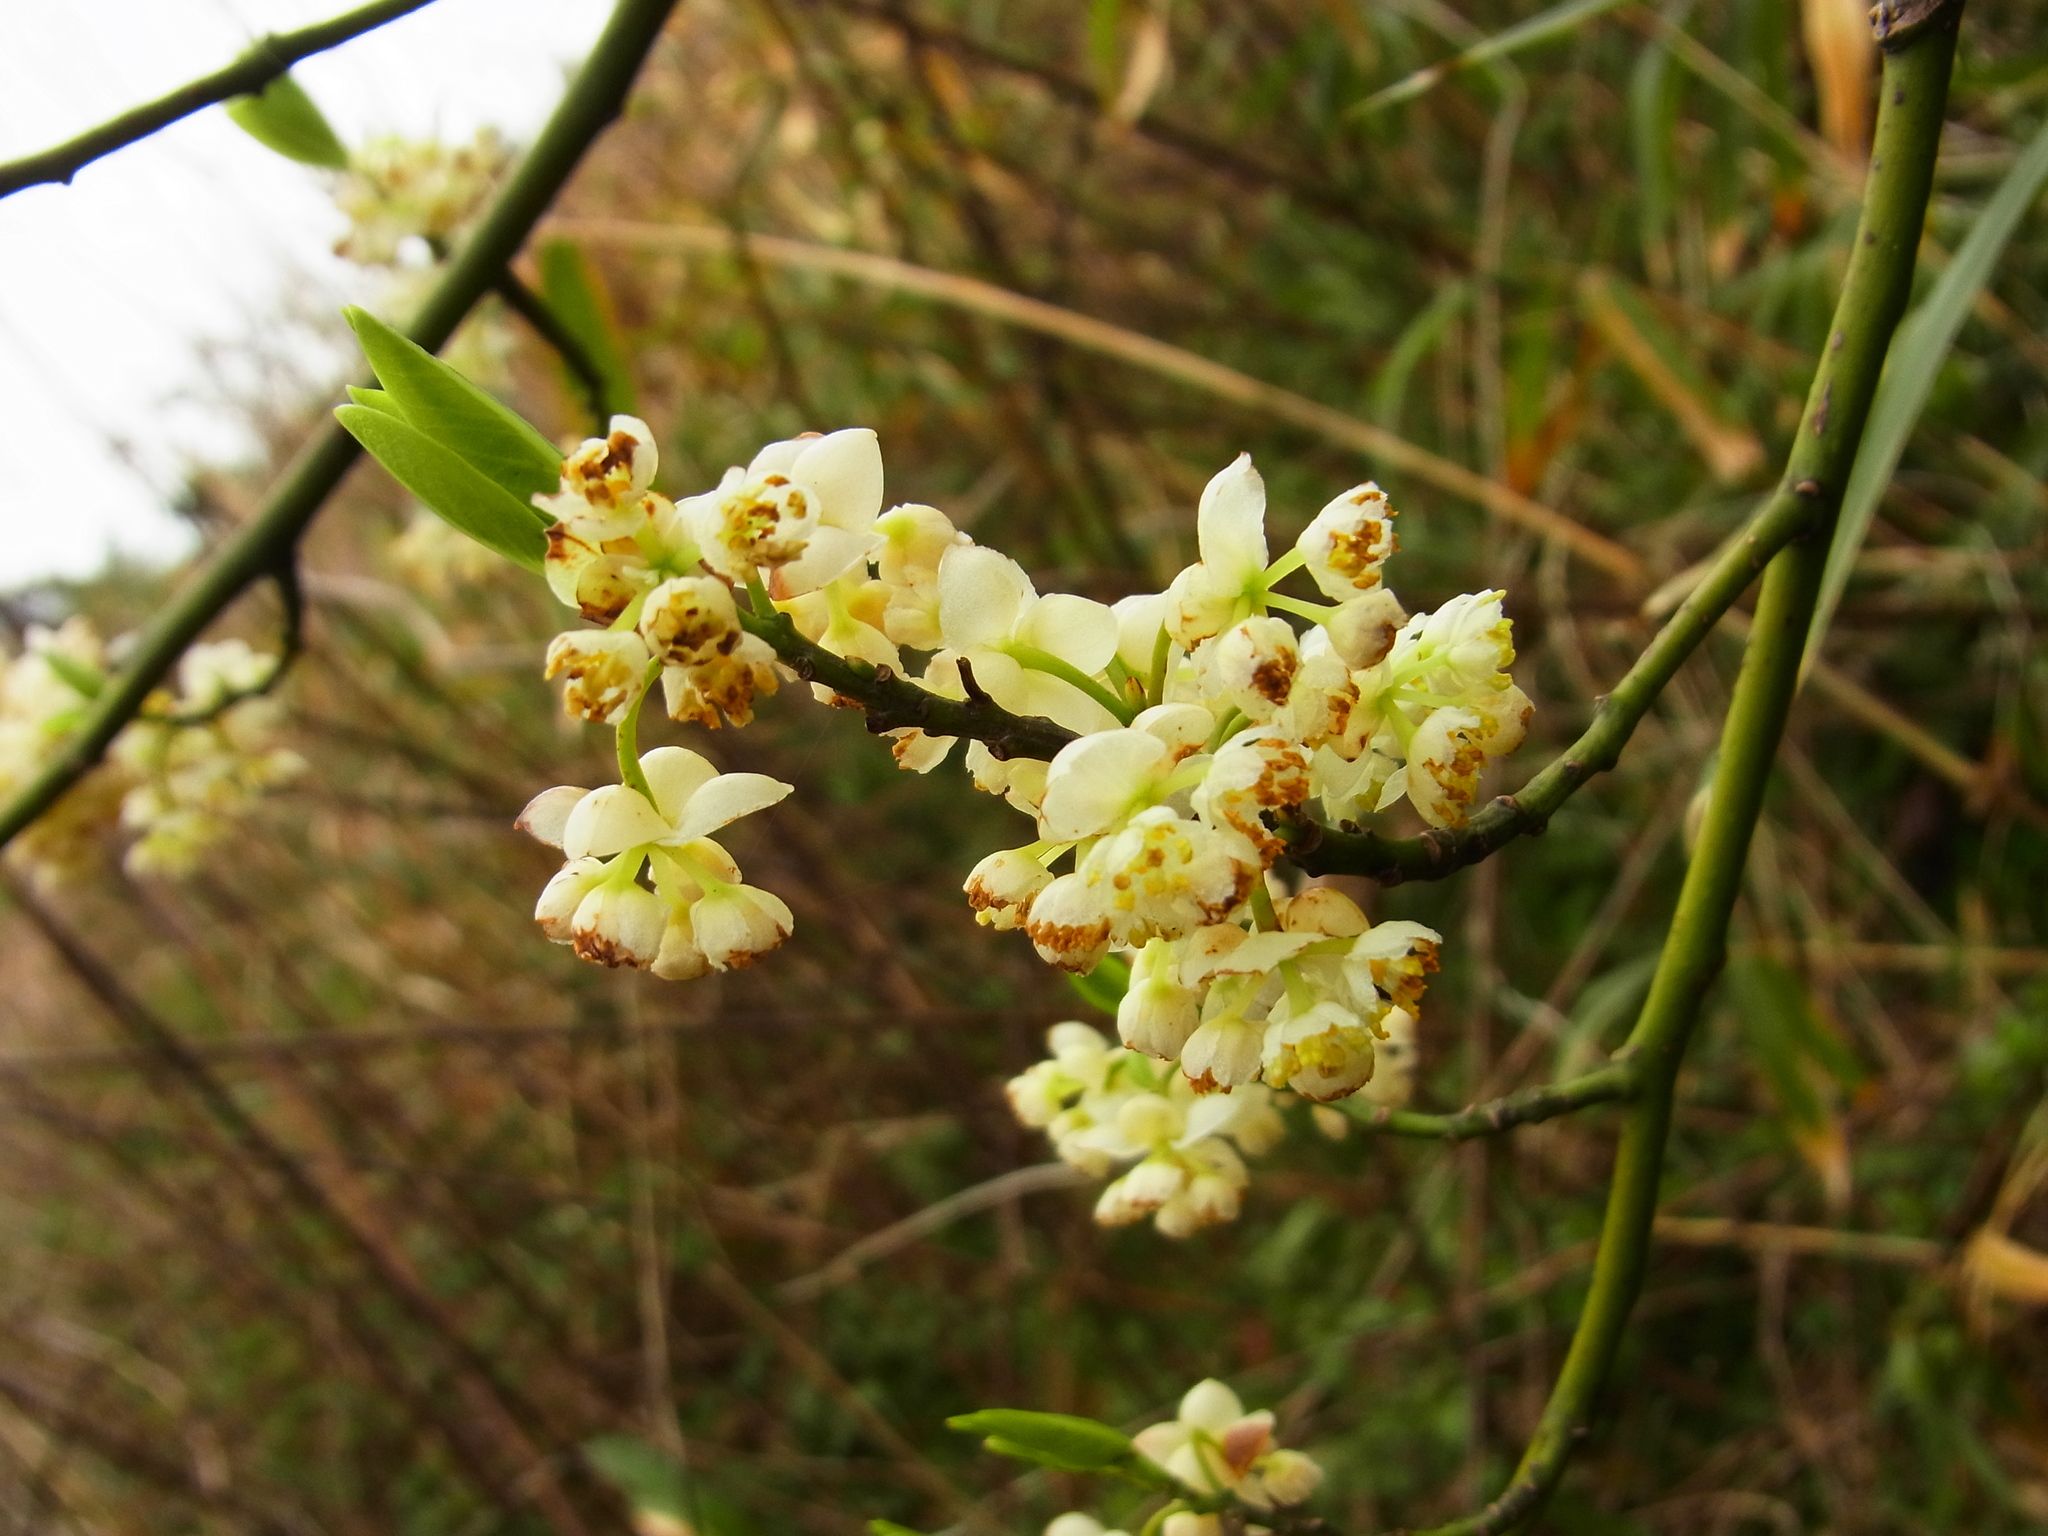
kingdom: Plantae
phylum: Tracheophyta
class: Magnoliopsida
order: Laurales
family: Lauraceae
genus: Litsea
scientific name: Litsea cubeba
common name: Mountain-pepper
